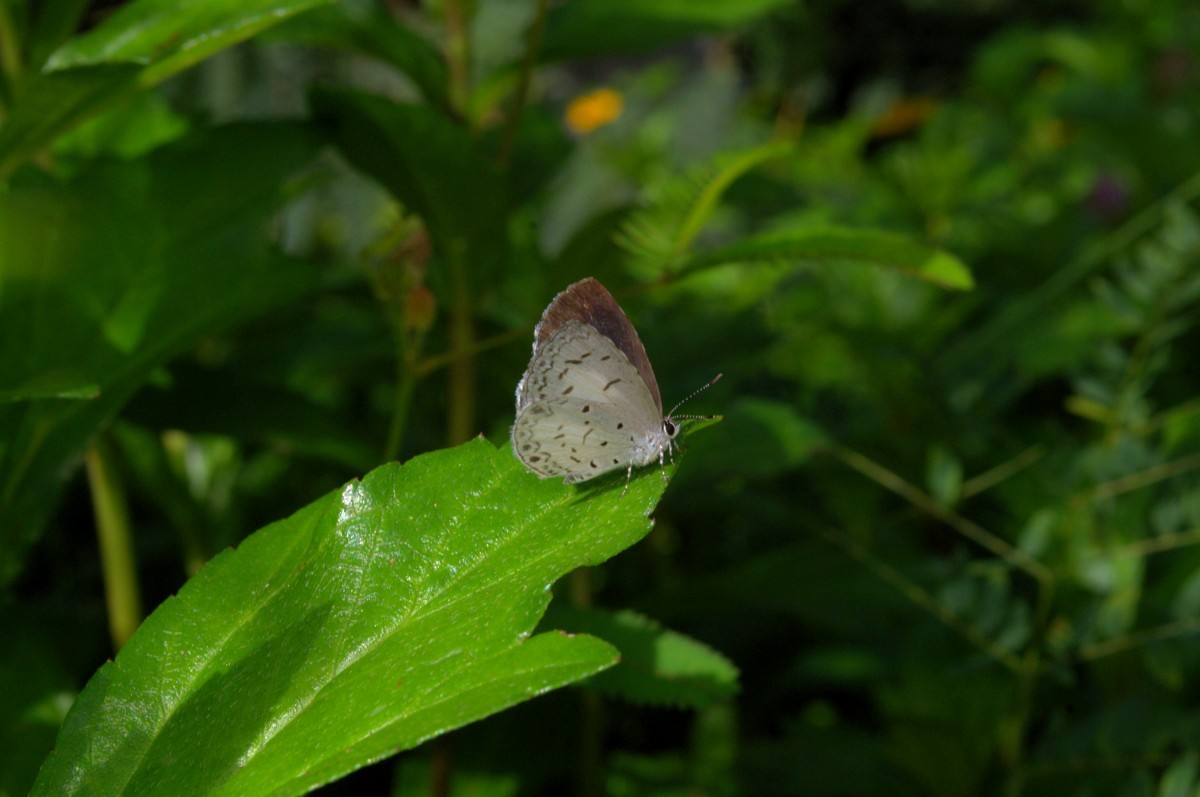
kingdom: Animalia
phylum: Arthropoda
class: Insecta
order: Lepidoptera
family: Lycaenidae
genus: Acytolepis
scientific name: Acytolepis puspa
